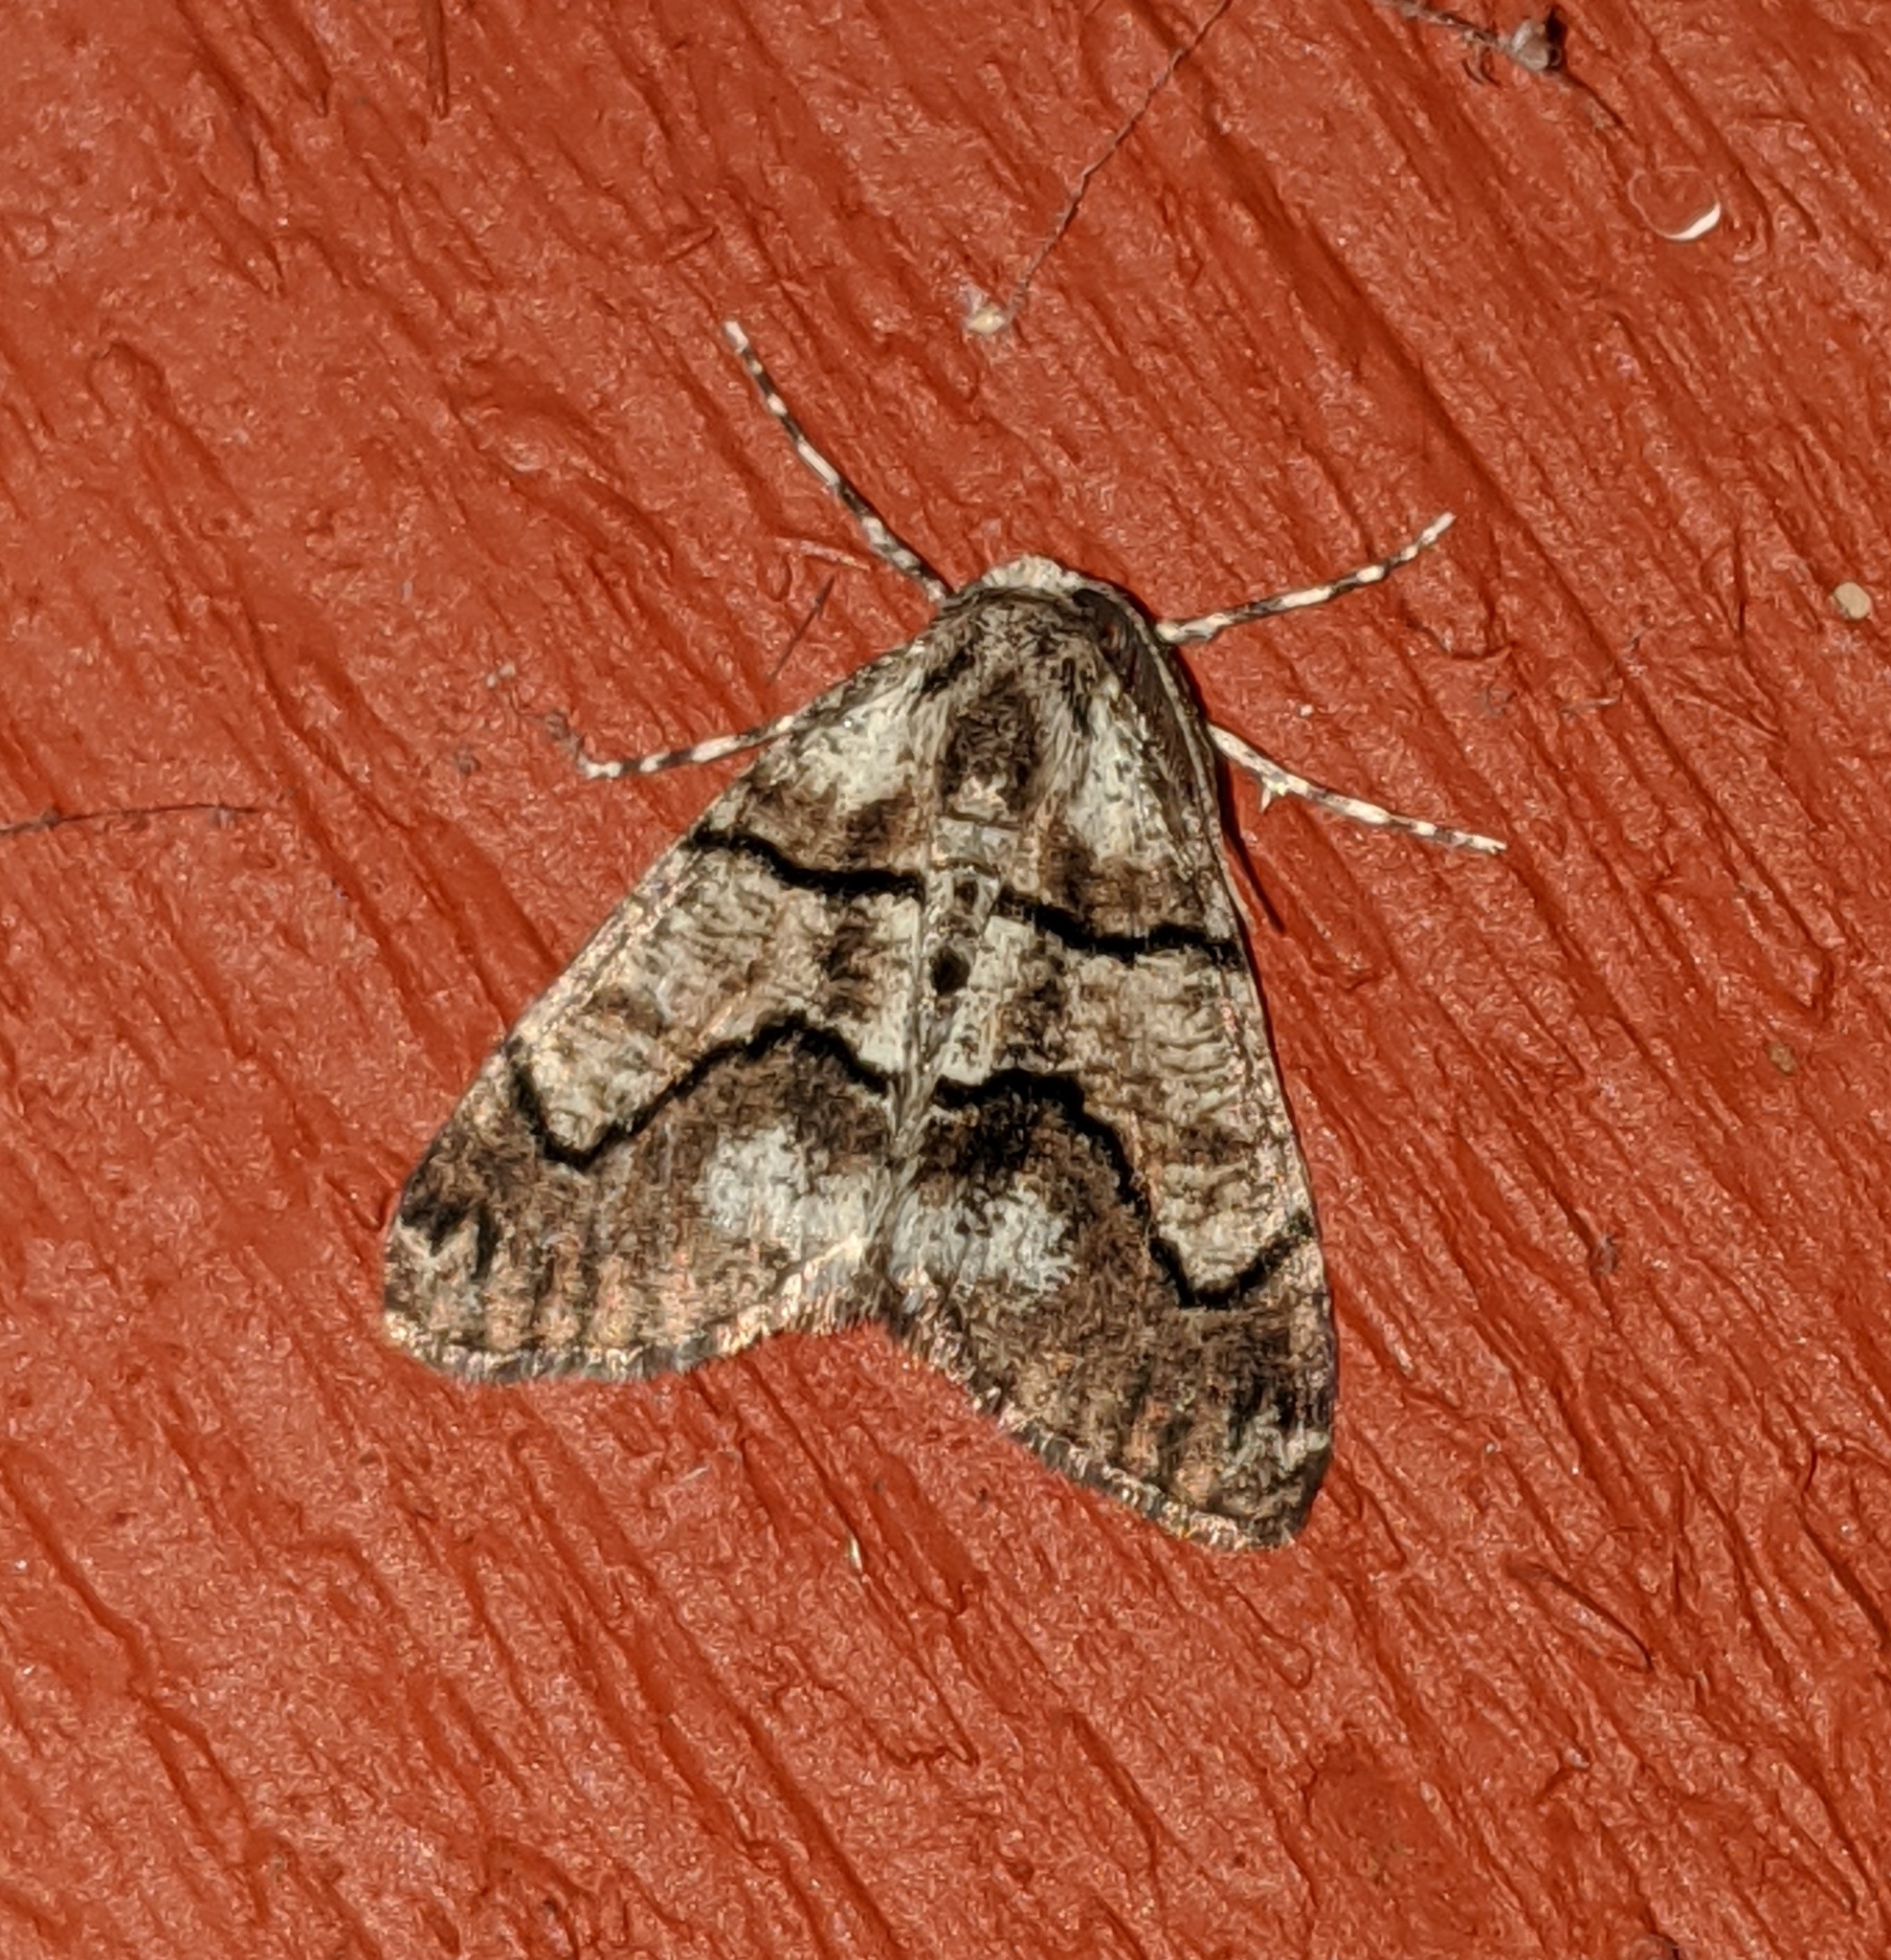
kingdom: Animalia
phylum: Arthropoda
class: Insecta
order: Lepidoptera
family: Geometridae
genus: Gabriola
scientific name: Gabriola dyari
